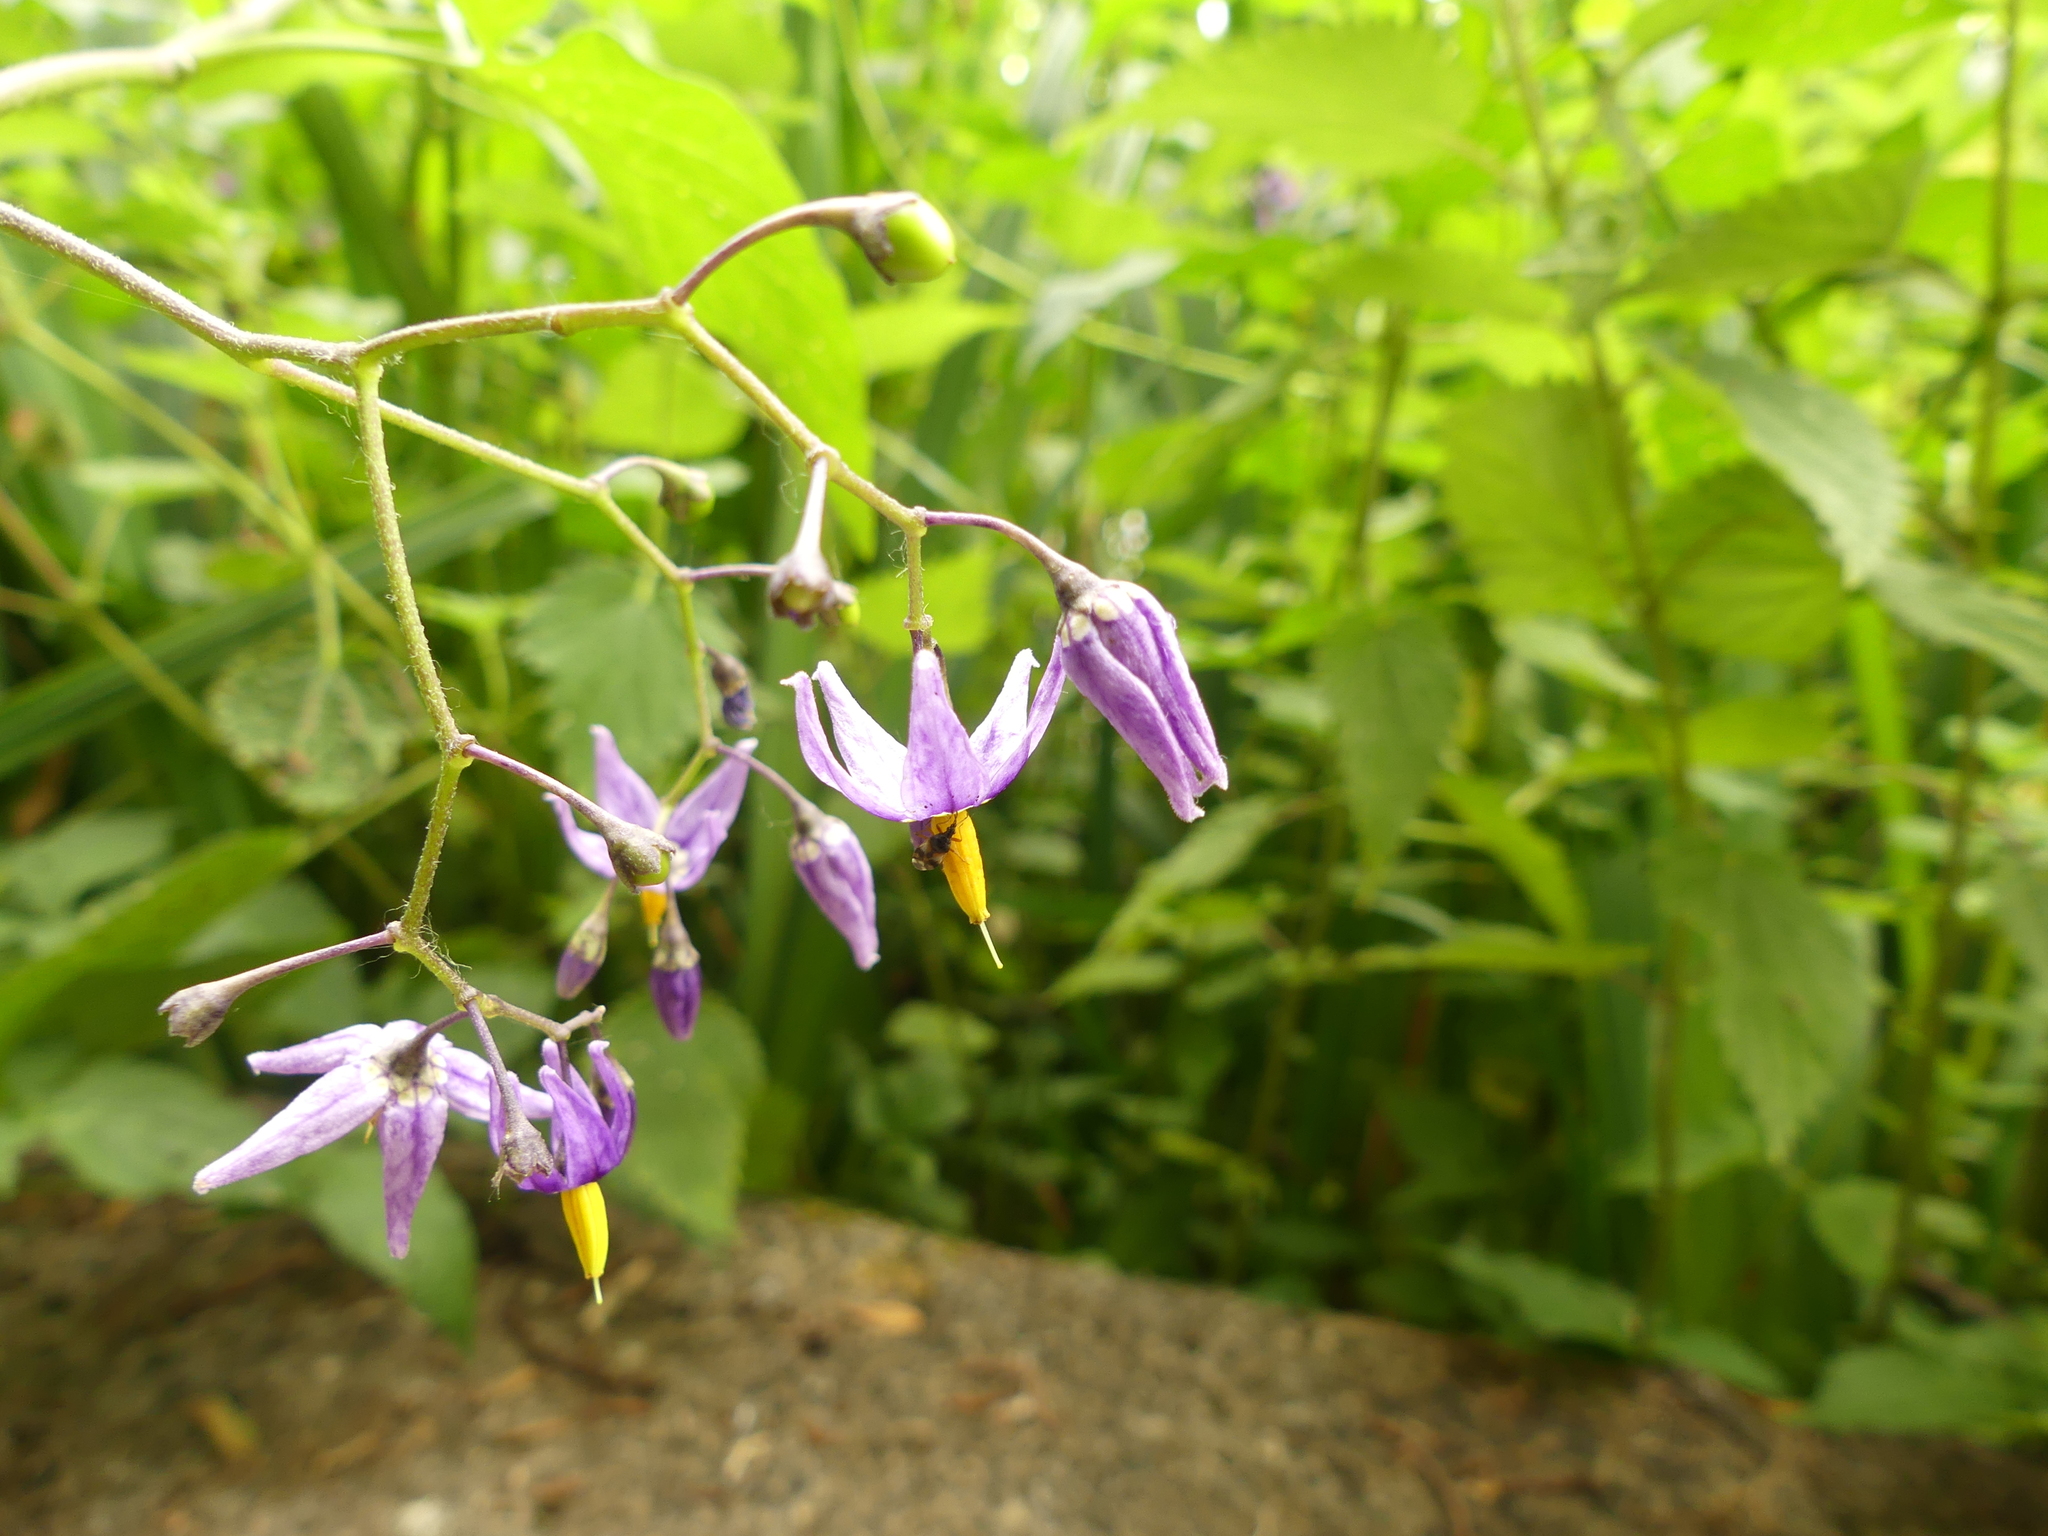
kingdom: Plantae
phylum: Tracheophyta
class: Magnoliopsida
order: Solanales
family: Solanaceae
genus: Solanum
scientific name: Solanum dulcamara
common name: Climbing nightshade
